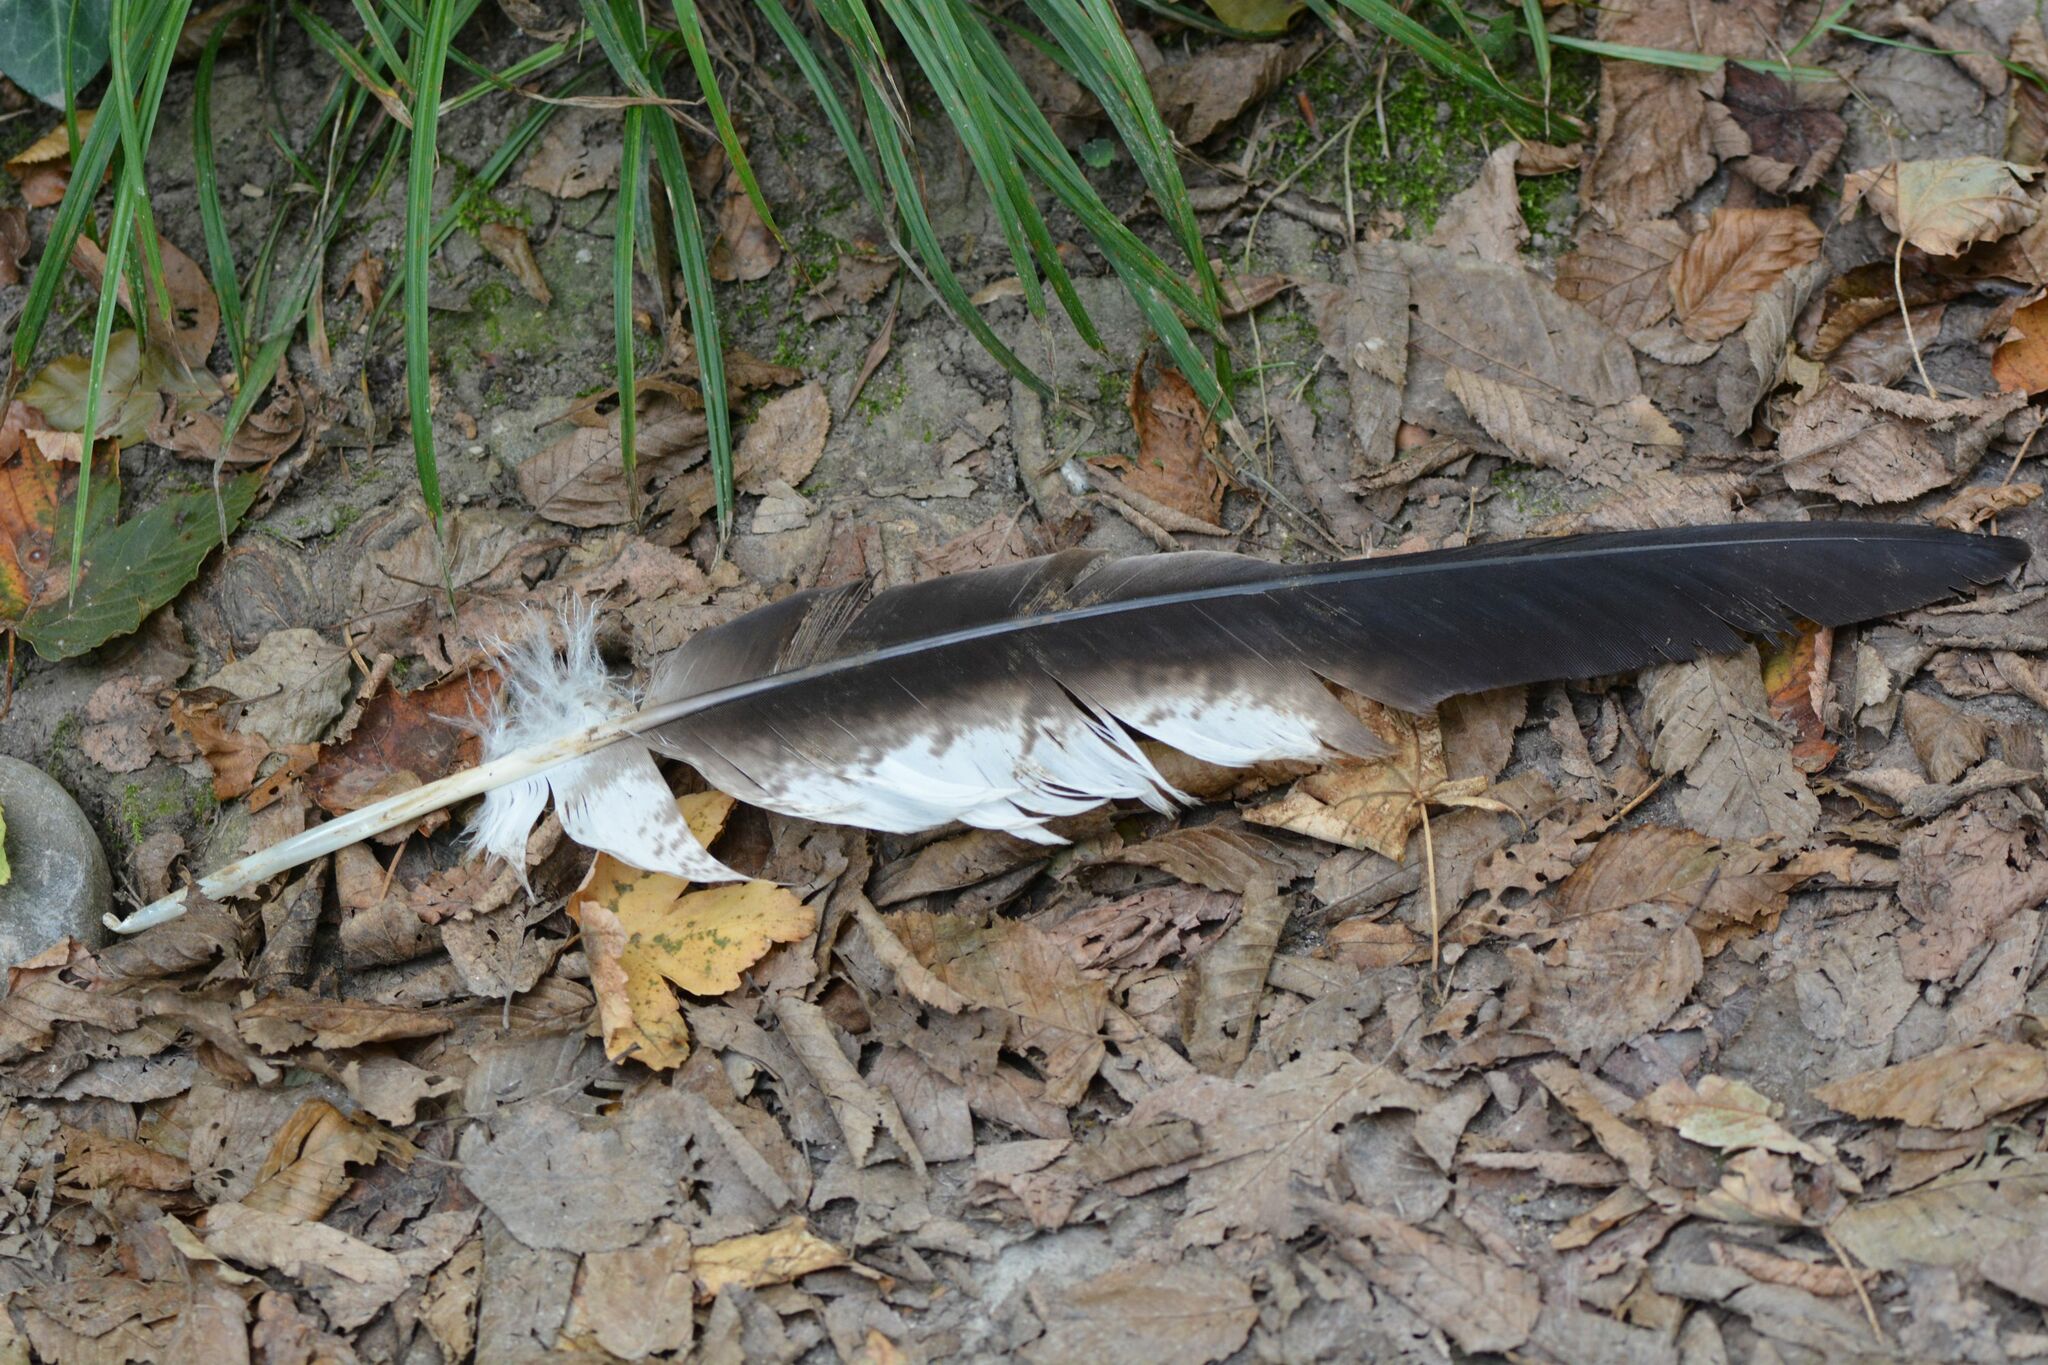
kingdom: Animalia
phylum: Chordata
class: Aves
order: Accipitriformes
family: Accipitridae
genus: Milvus
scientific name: Milvus milvus
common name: Red kite
